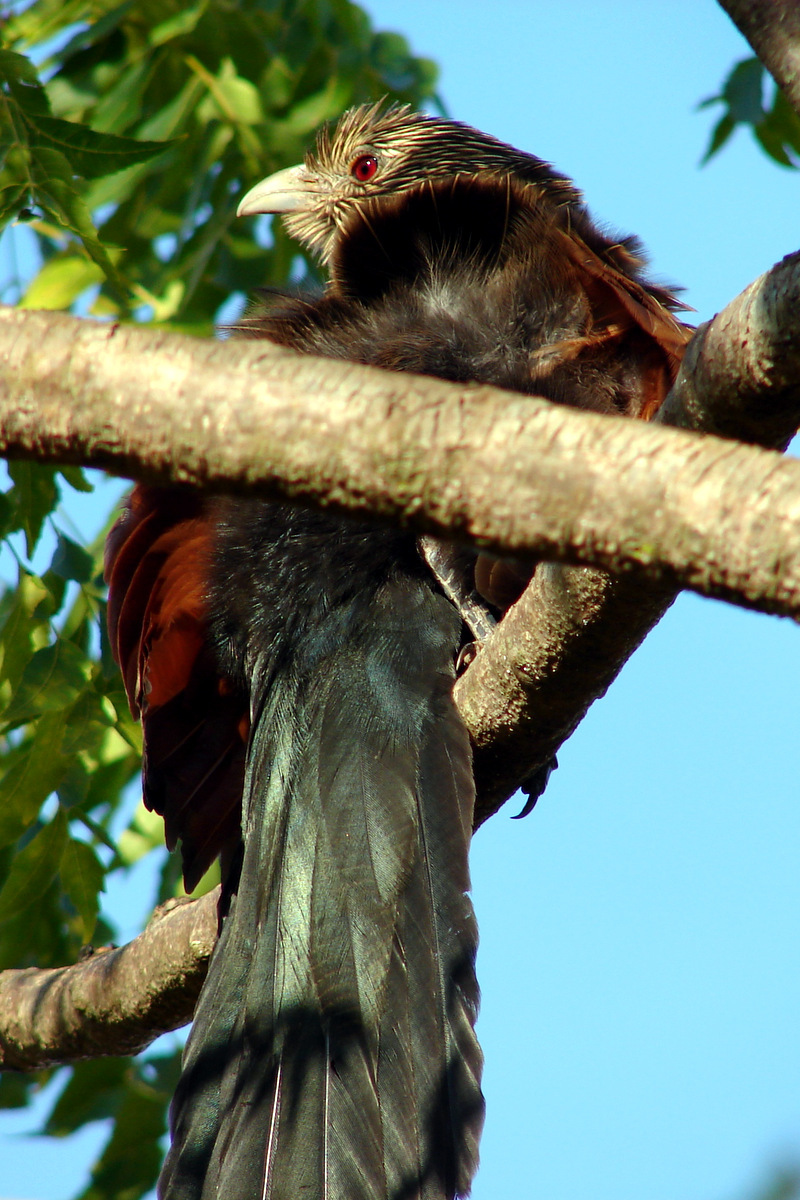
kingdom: Animalia
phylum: Chordata
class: Aves
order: Cuculiformes
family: Cuculidae
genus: Centropus
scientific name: Centropus toulou
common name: Malagasy coucal
